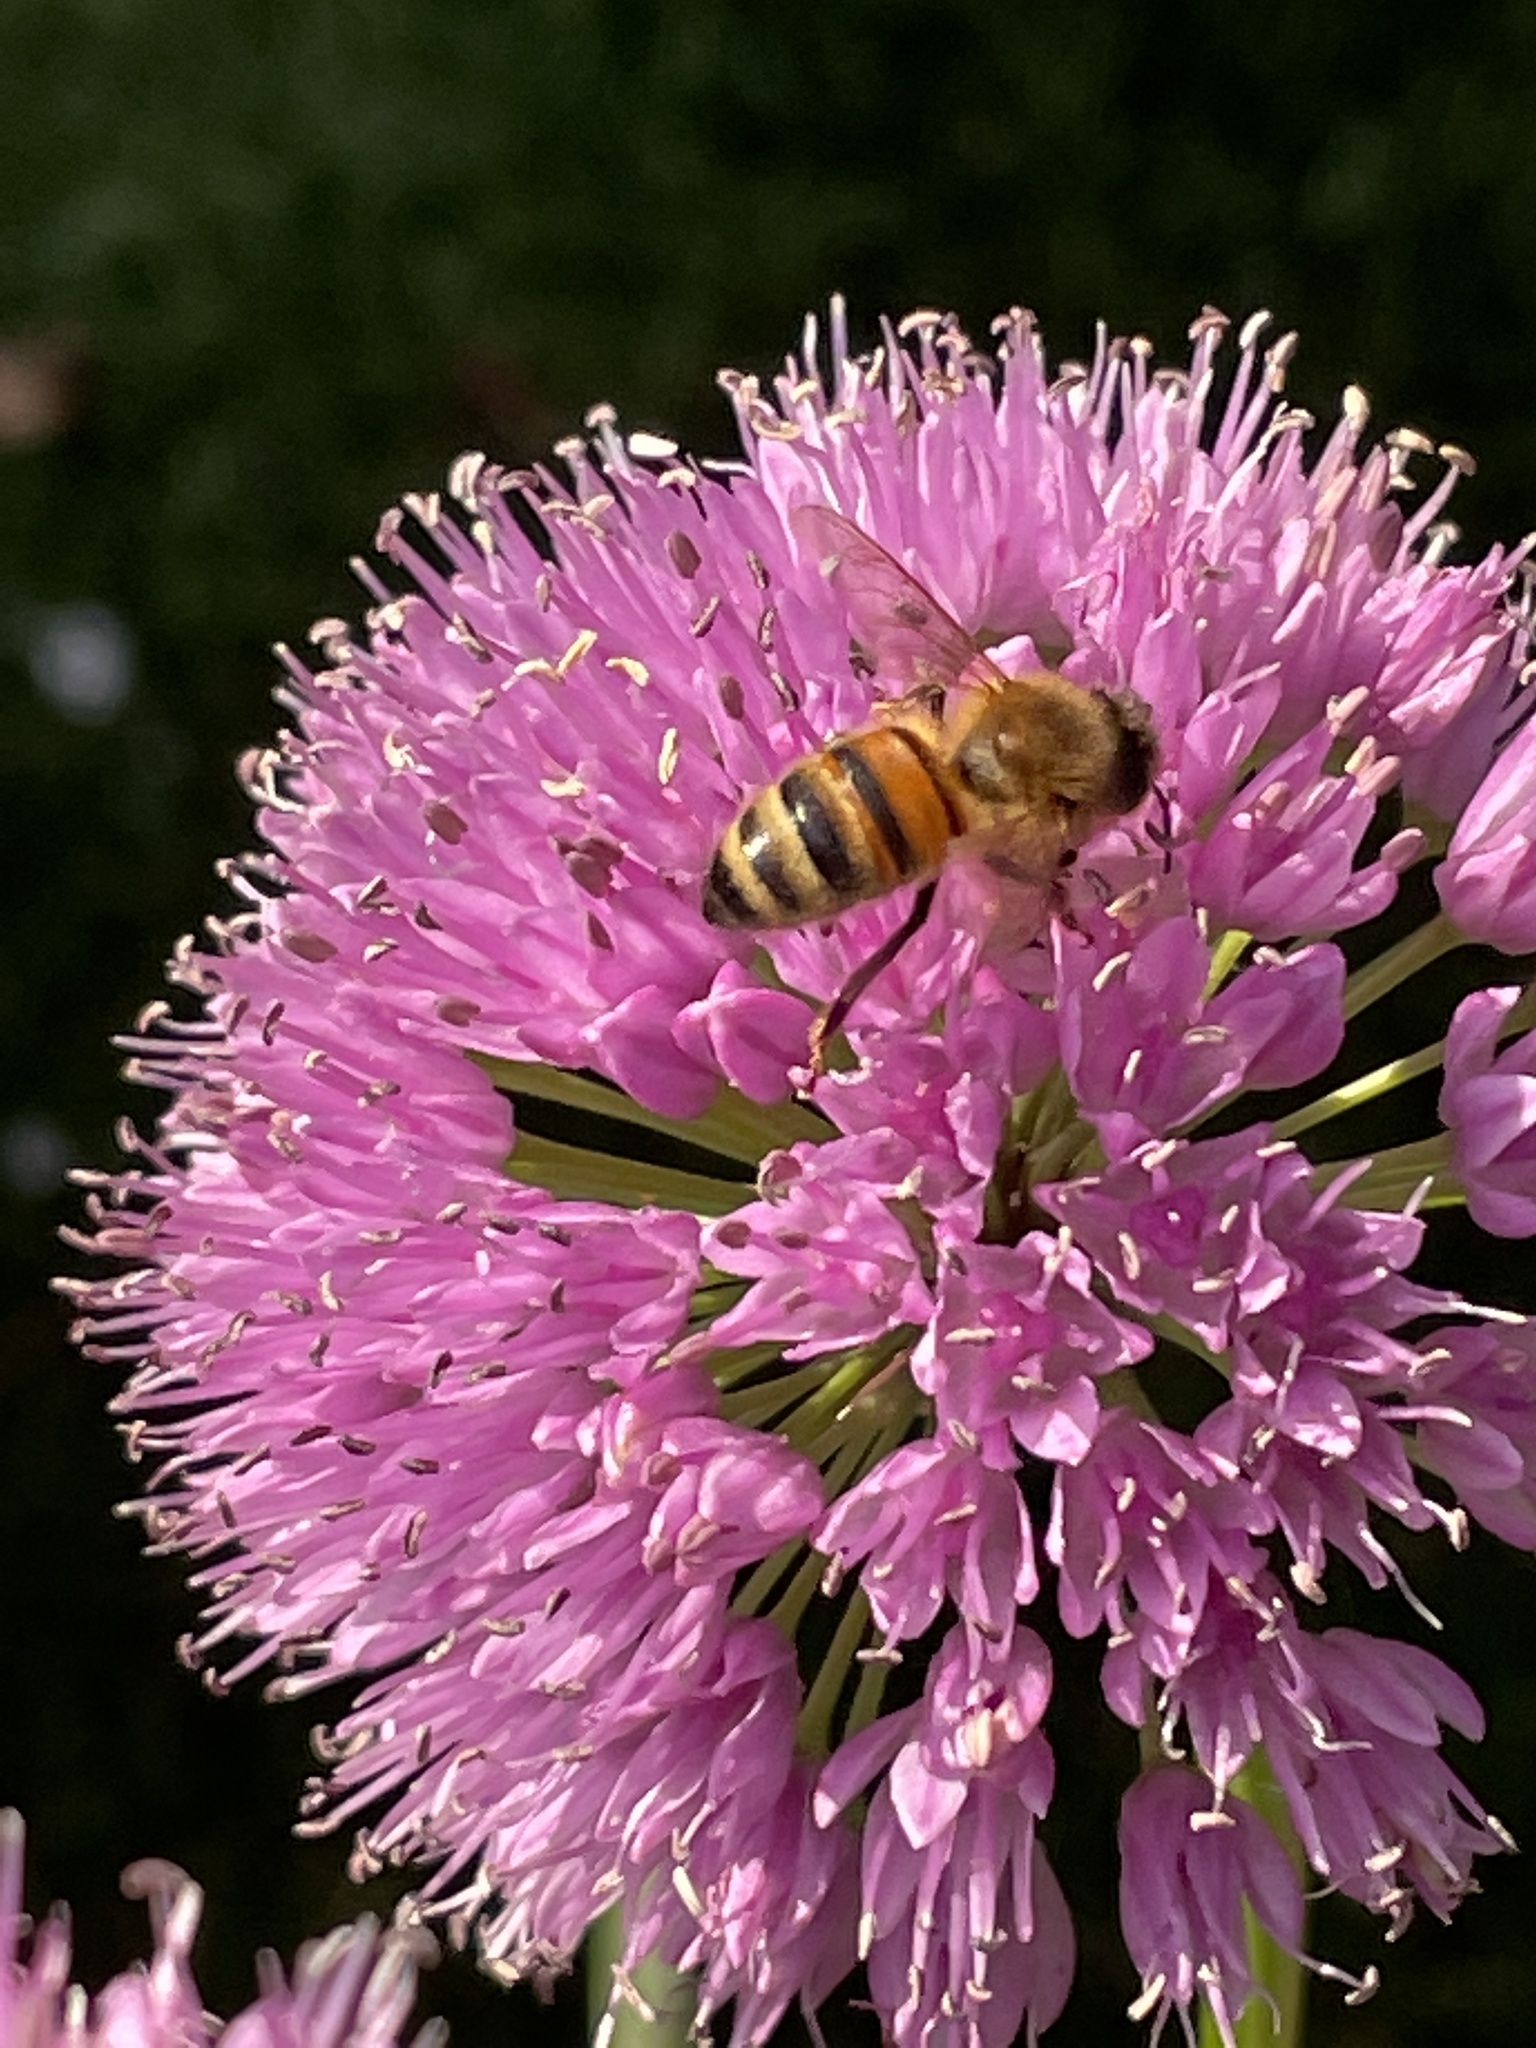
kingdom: Animalia
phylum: Arthropoda
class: Insecta
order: Hymenoptera
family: Apidae
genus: Apis
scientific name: Apis mellifera
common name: Honey bee
